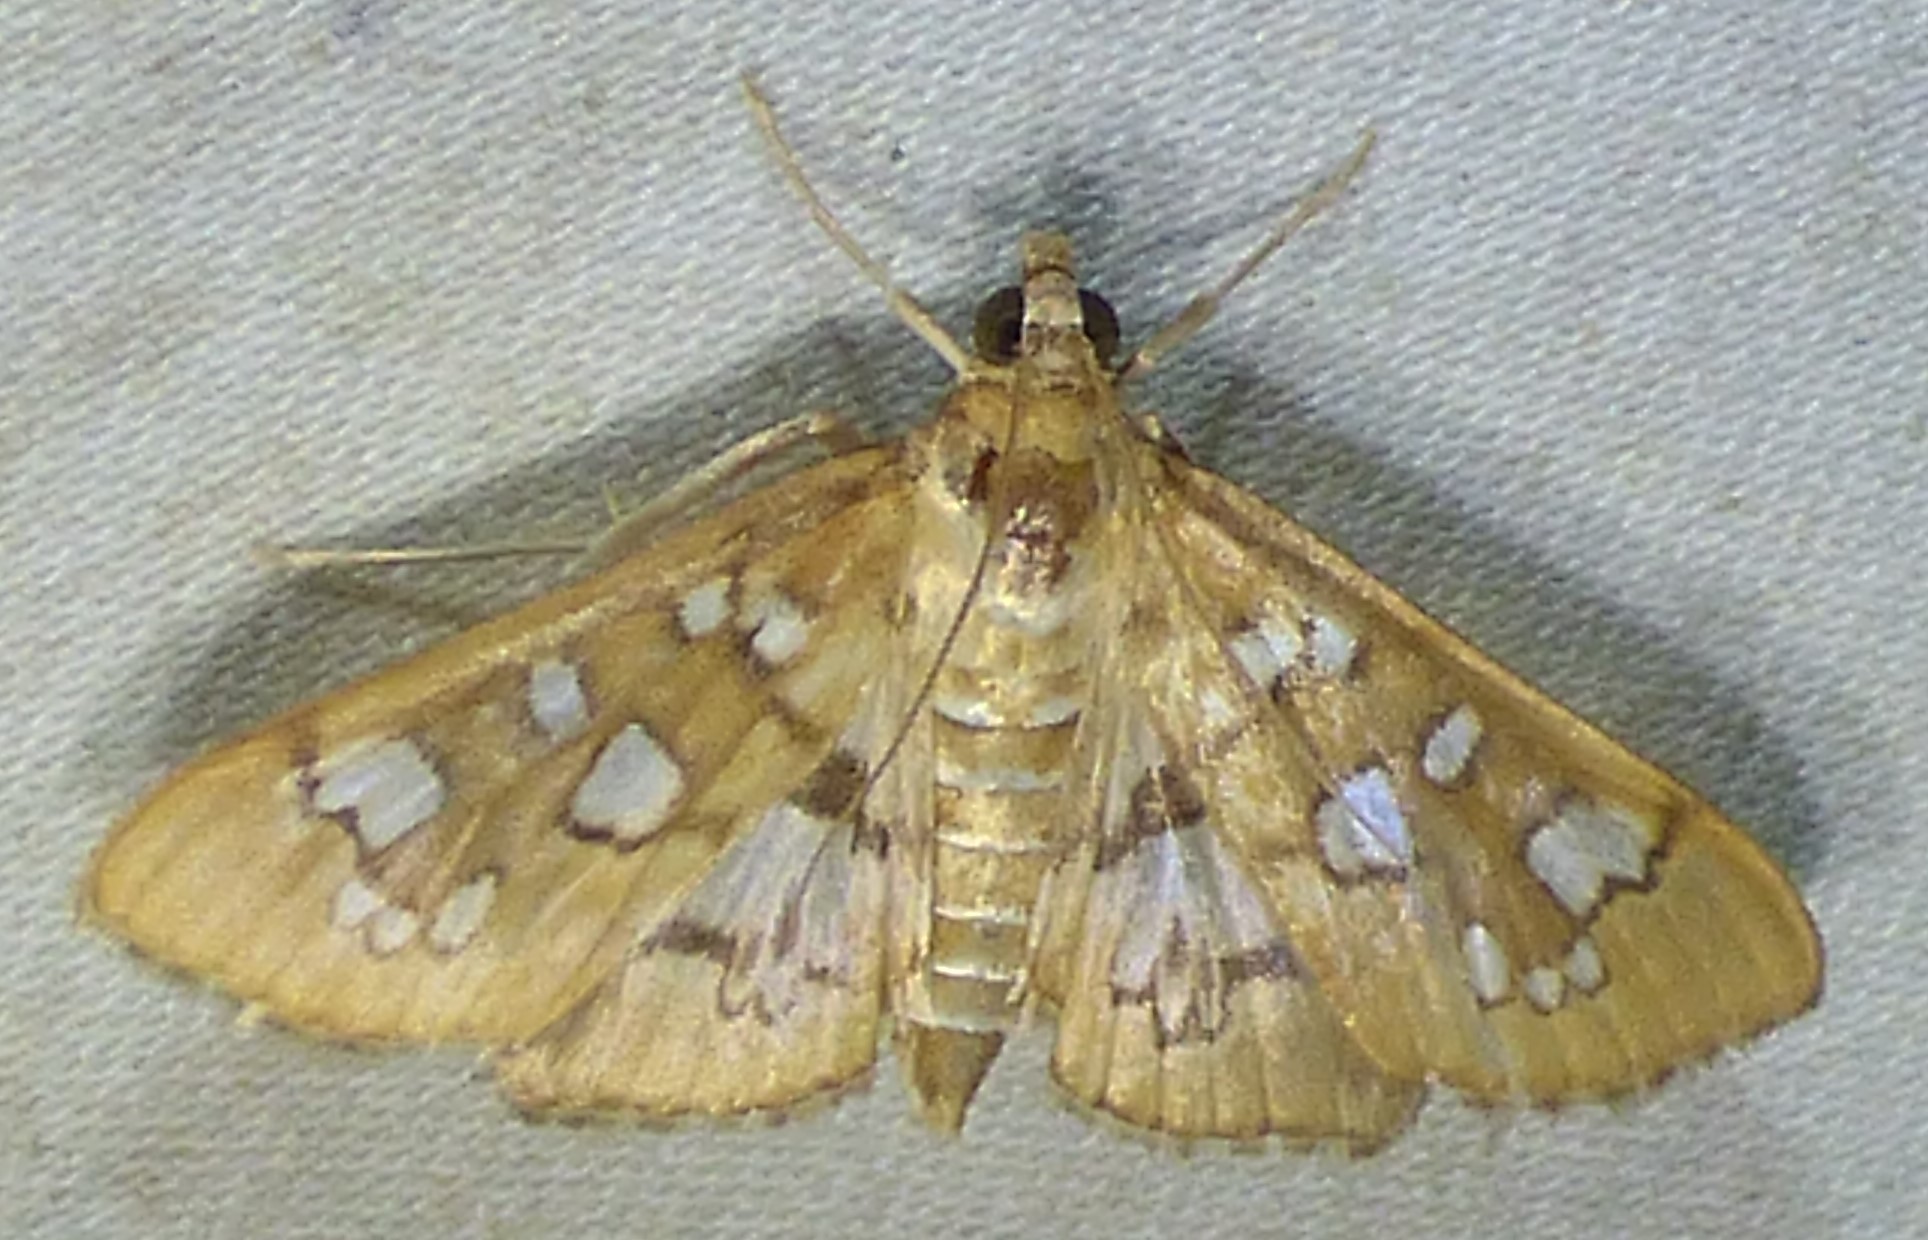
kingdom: Animalia
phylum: Arthropoda
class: Insecta
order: Lepidoptera
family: Crambidae
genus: Samea
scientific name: Samea baccatalis
